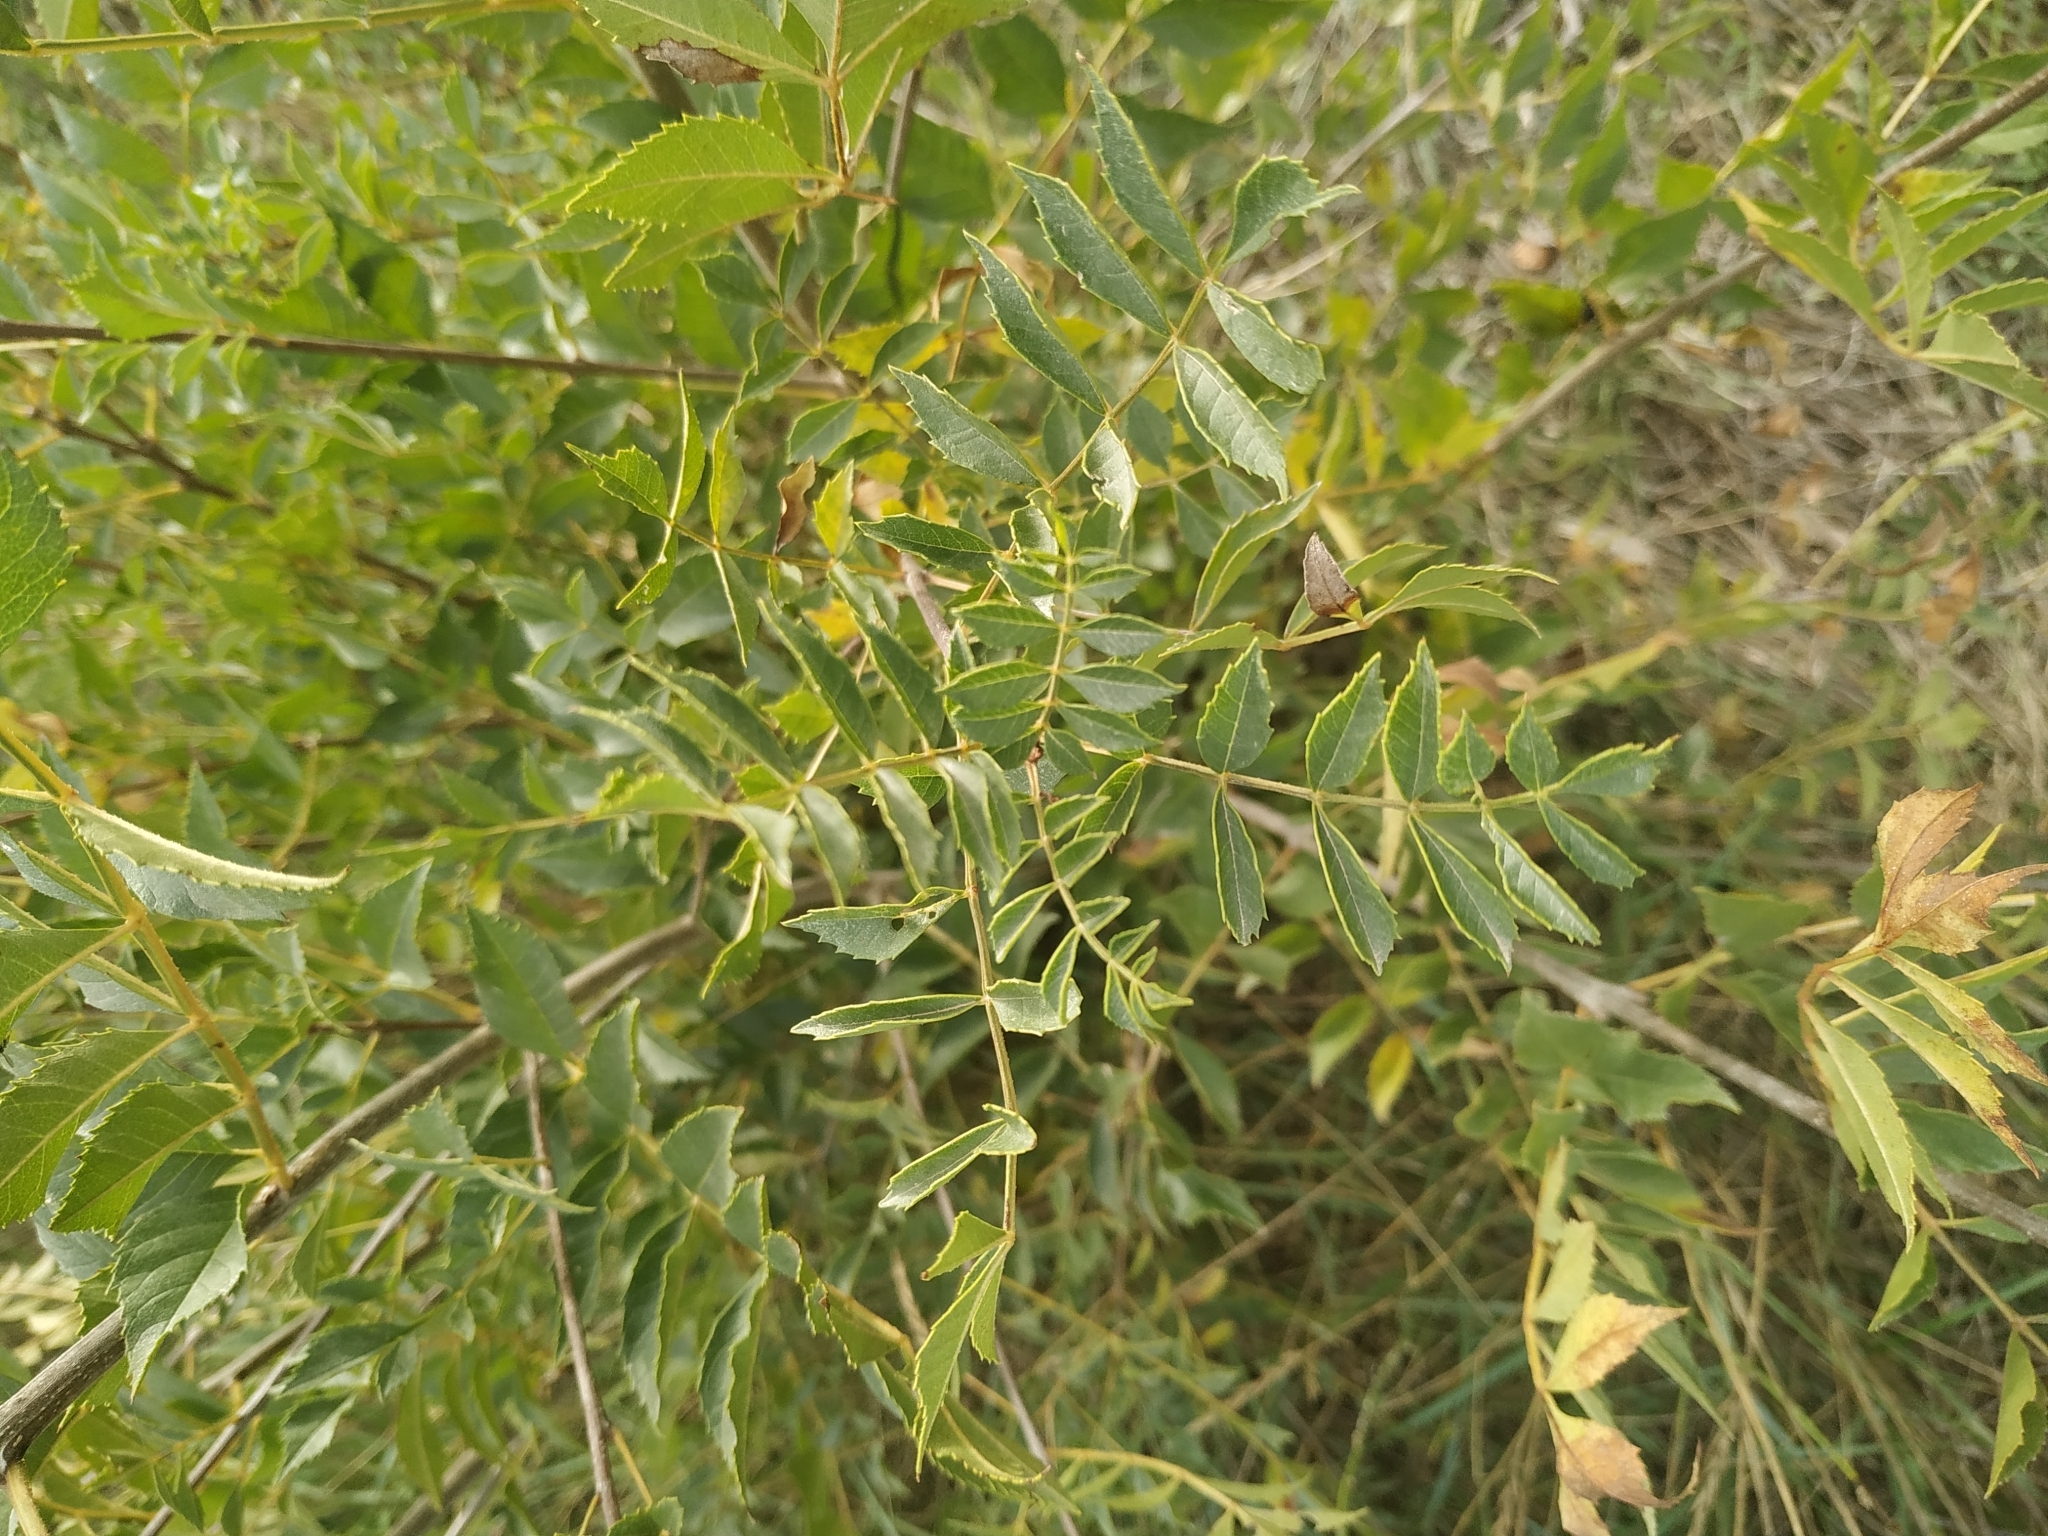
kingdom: Plantae
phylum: Tracheophyta
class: Magnoliopsida
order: Lamiales
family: Oleaceae
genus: Fraxinus
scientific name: Fraxinus angustifolia
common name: Narrow-leafed ash
